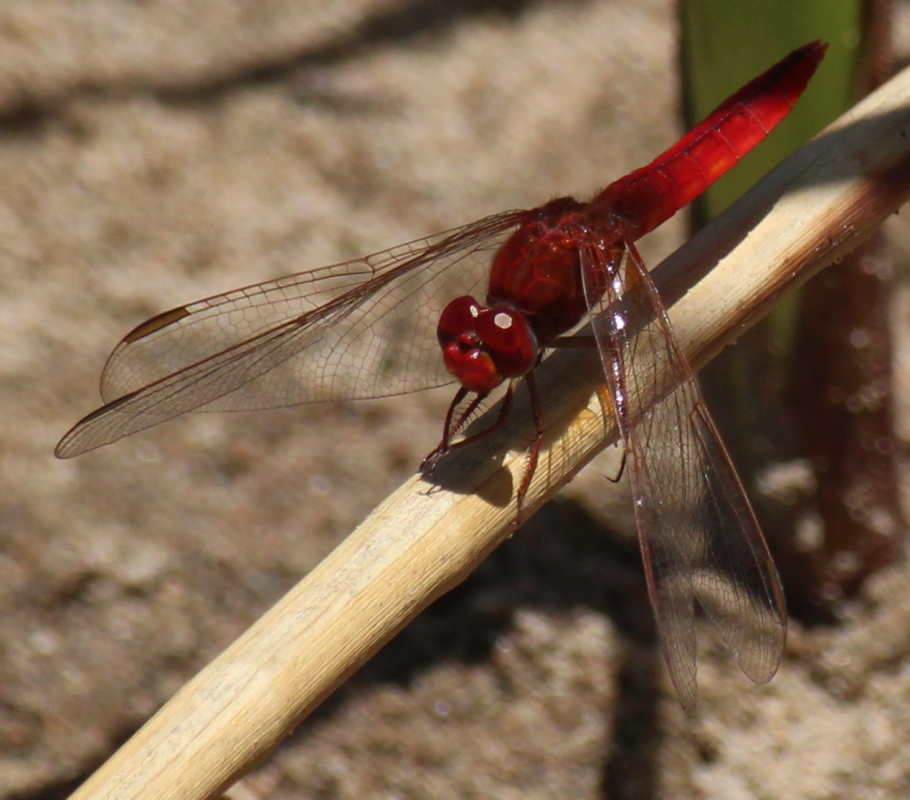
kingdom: Animalia
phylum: Arthropoda
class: Insecta
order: Odonata
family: Libellulidae
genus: Crocothemis
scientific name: Crocothemis erythraea
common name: Scarlet dragonfly
